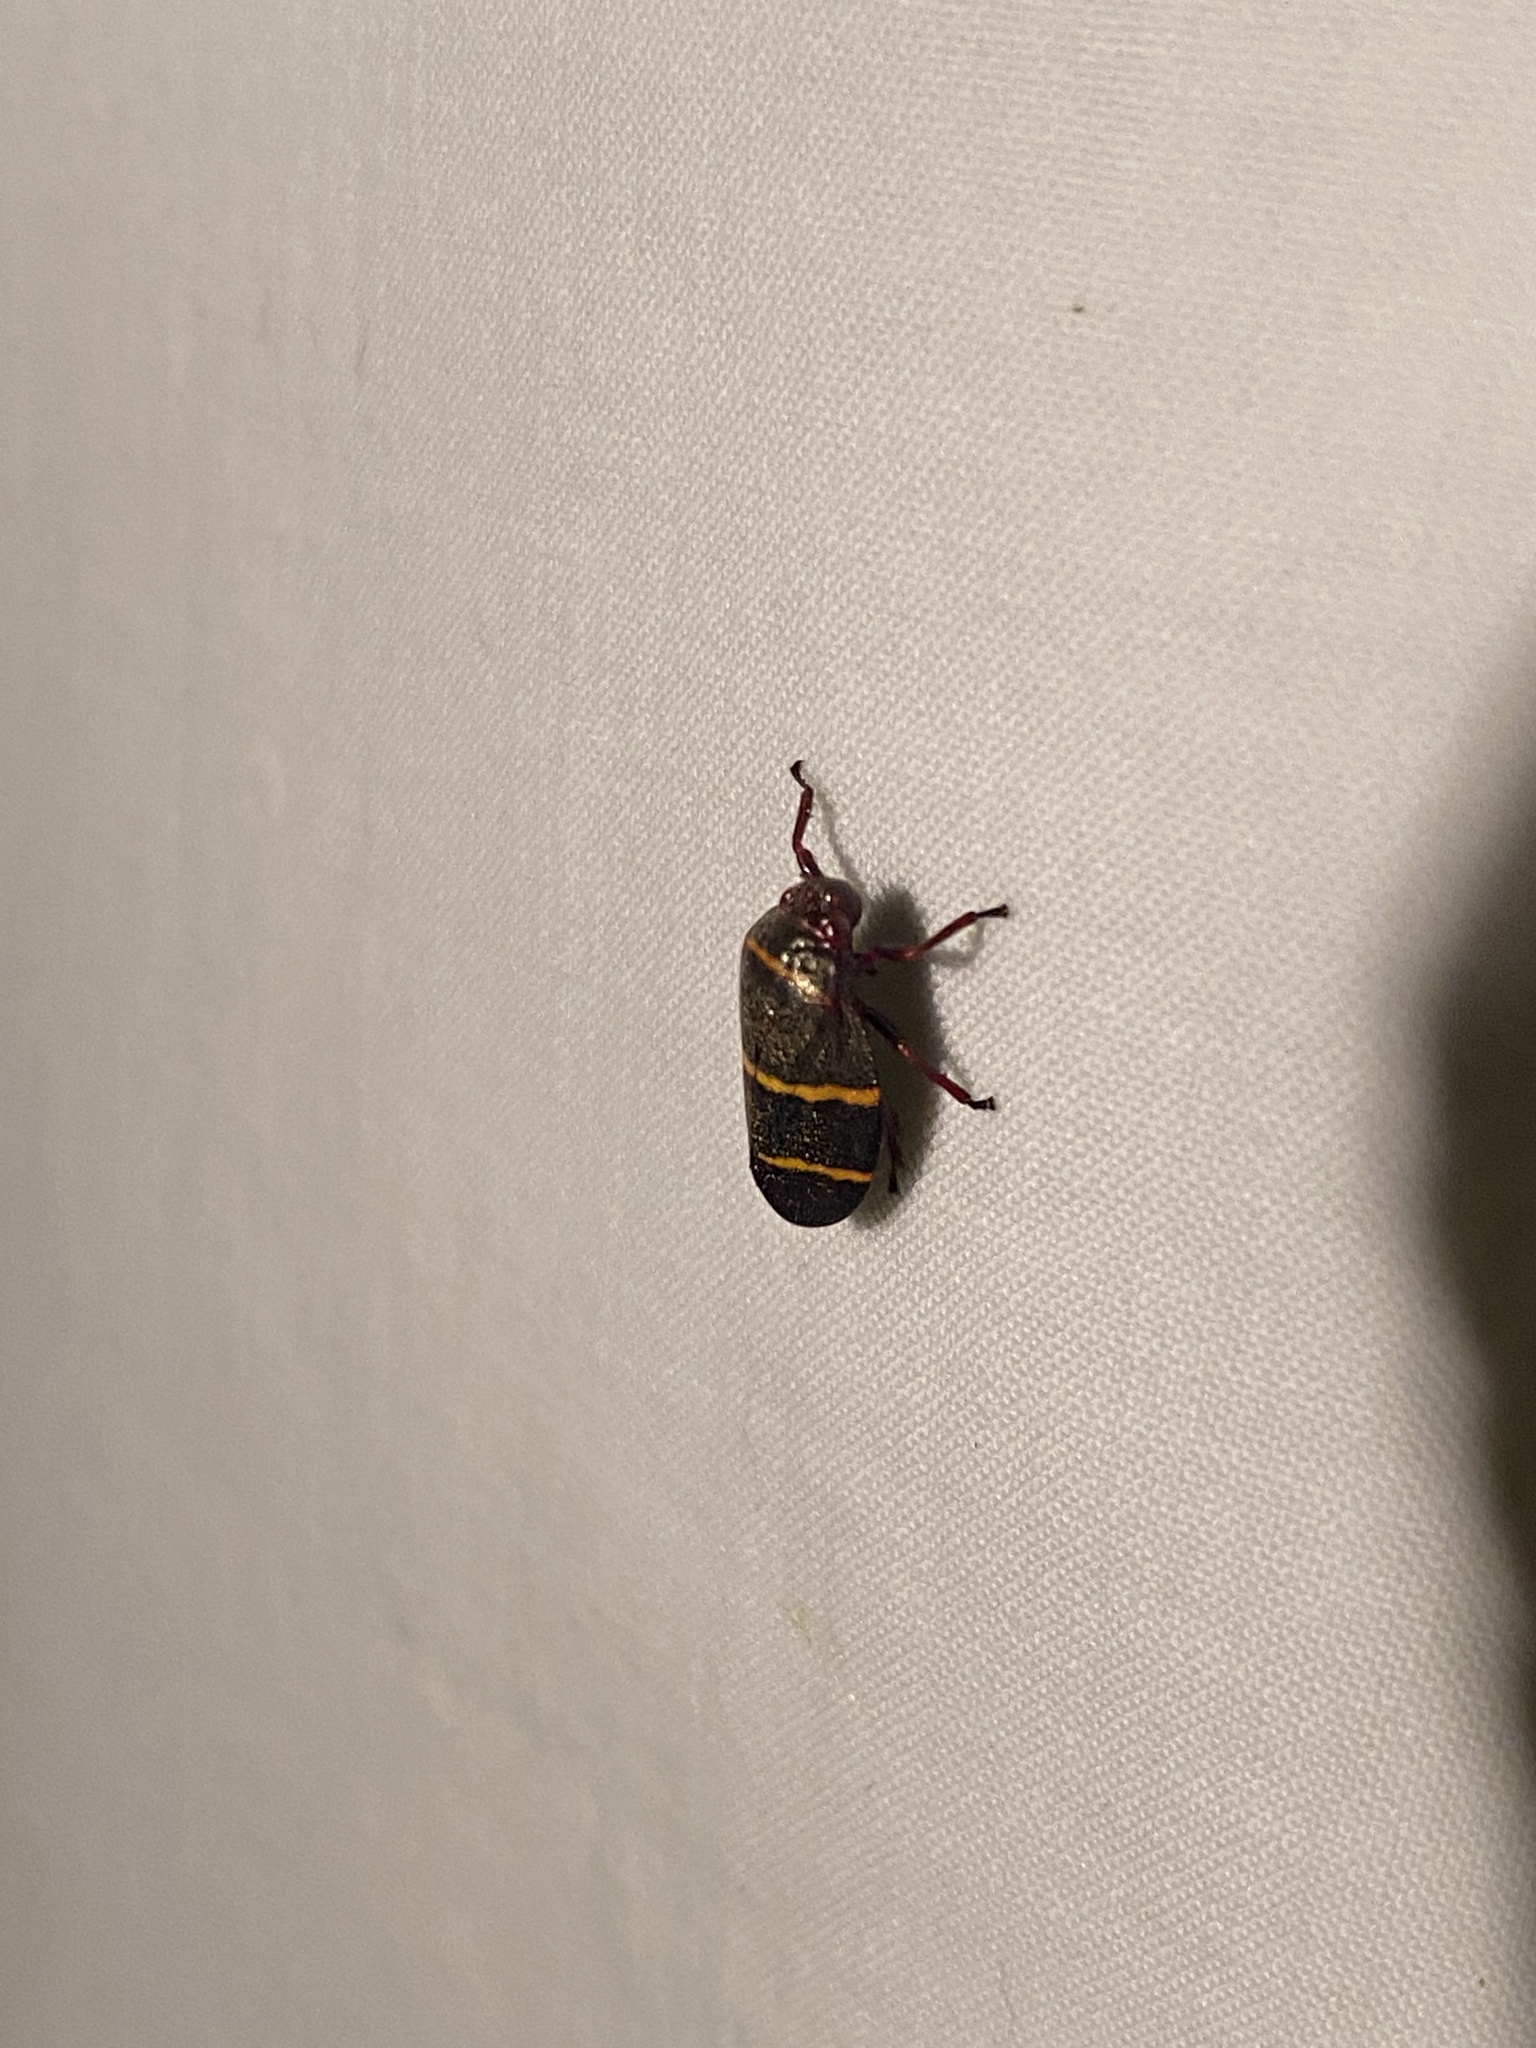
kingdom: Animalia
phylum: Arthropoda
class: Insecta
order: Hemiptera
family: Cercopidae
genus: Prosapia
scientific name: Prosapia bicincta
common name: Twolined spittlebug
